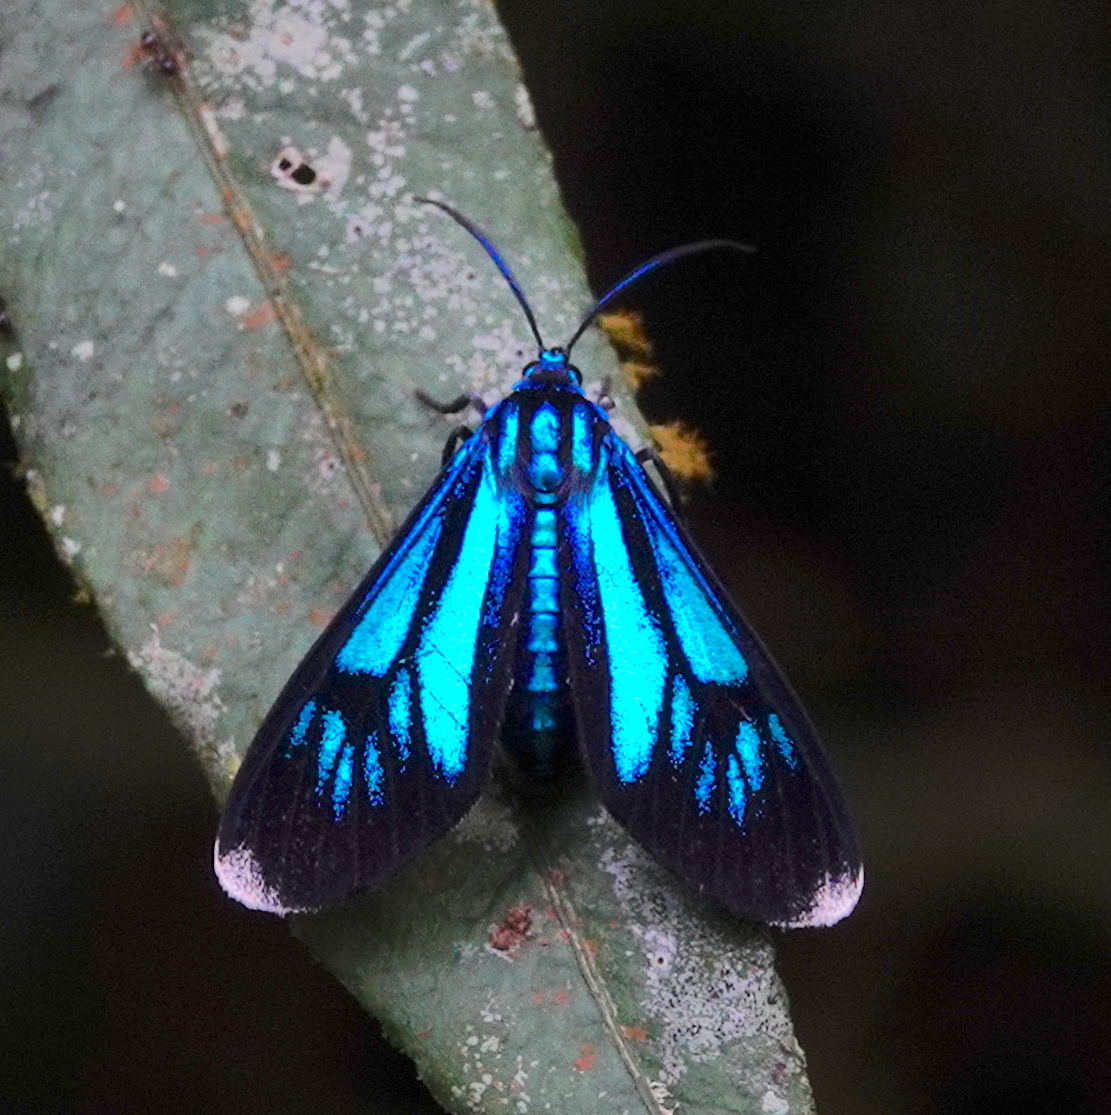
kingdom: Animalia
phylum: Arthropoda
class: Insecta
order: Lepidoptera
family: Erebidae
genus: Uranophora
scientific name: Uranophora superba
